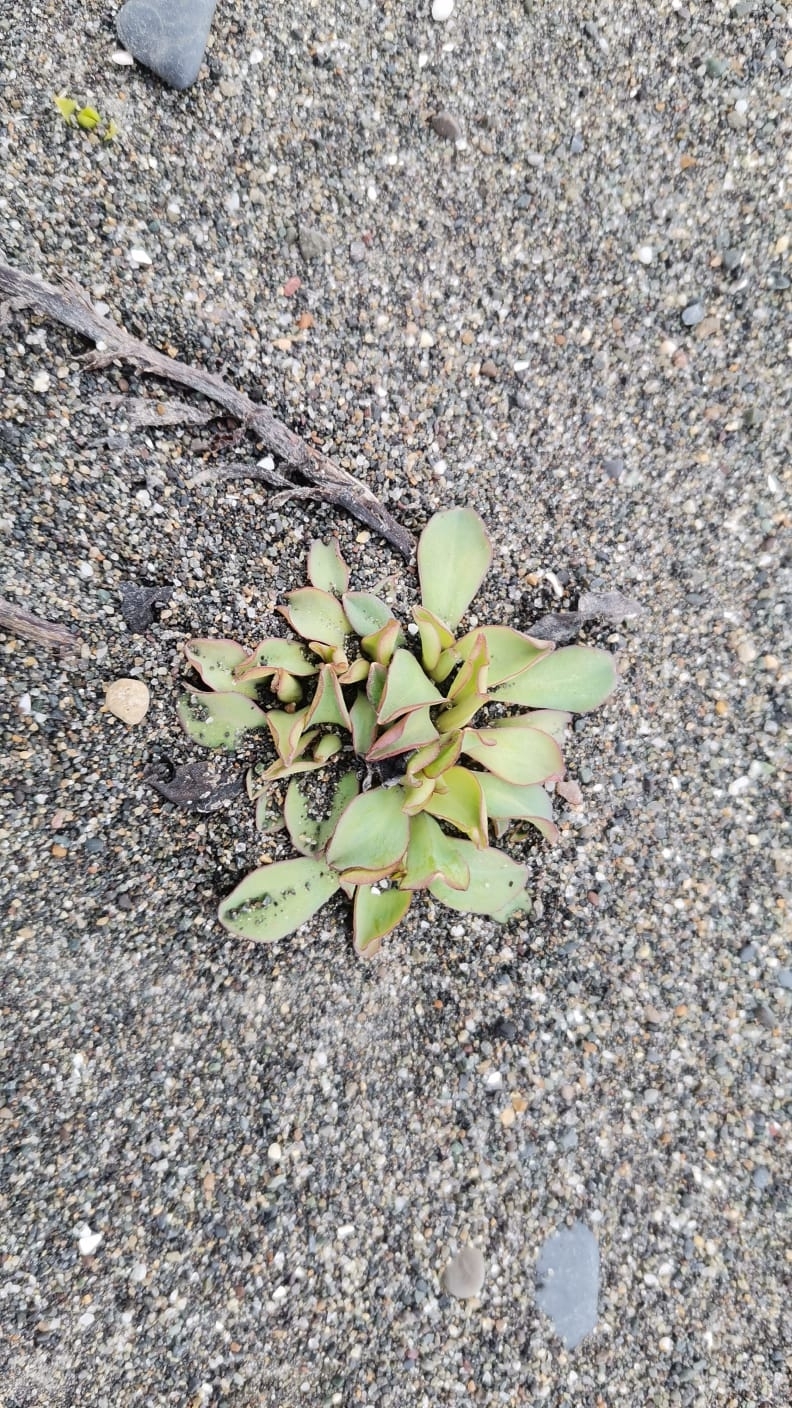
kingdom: Plantae
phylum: Tracheophyta
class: Magnoliopsida
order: Boraginales
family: Boraginaceae
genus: Mertensia
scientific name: Mertensia maritima
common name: Oysterplant
